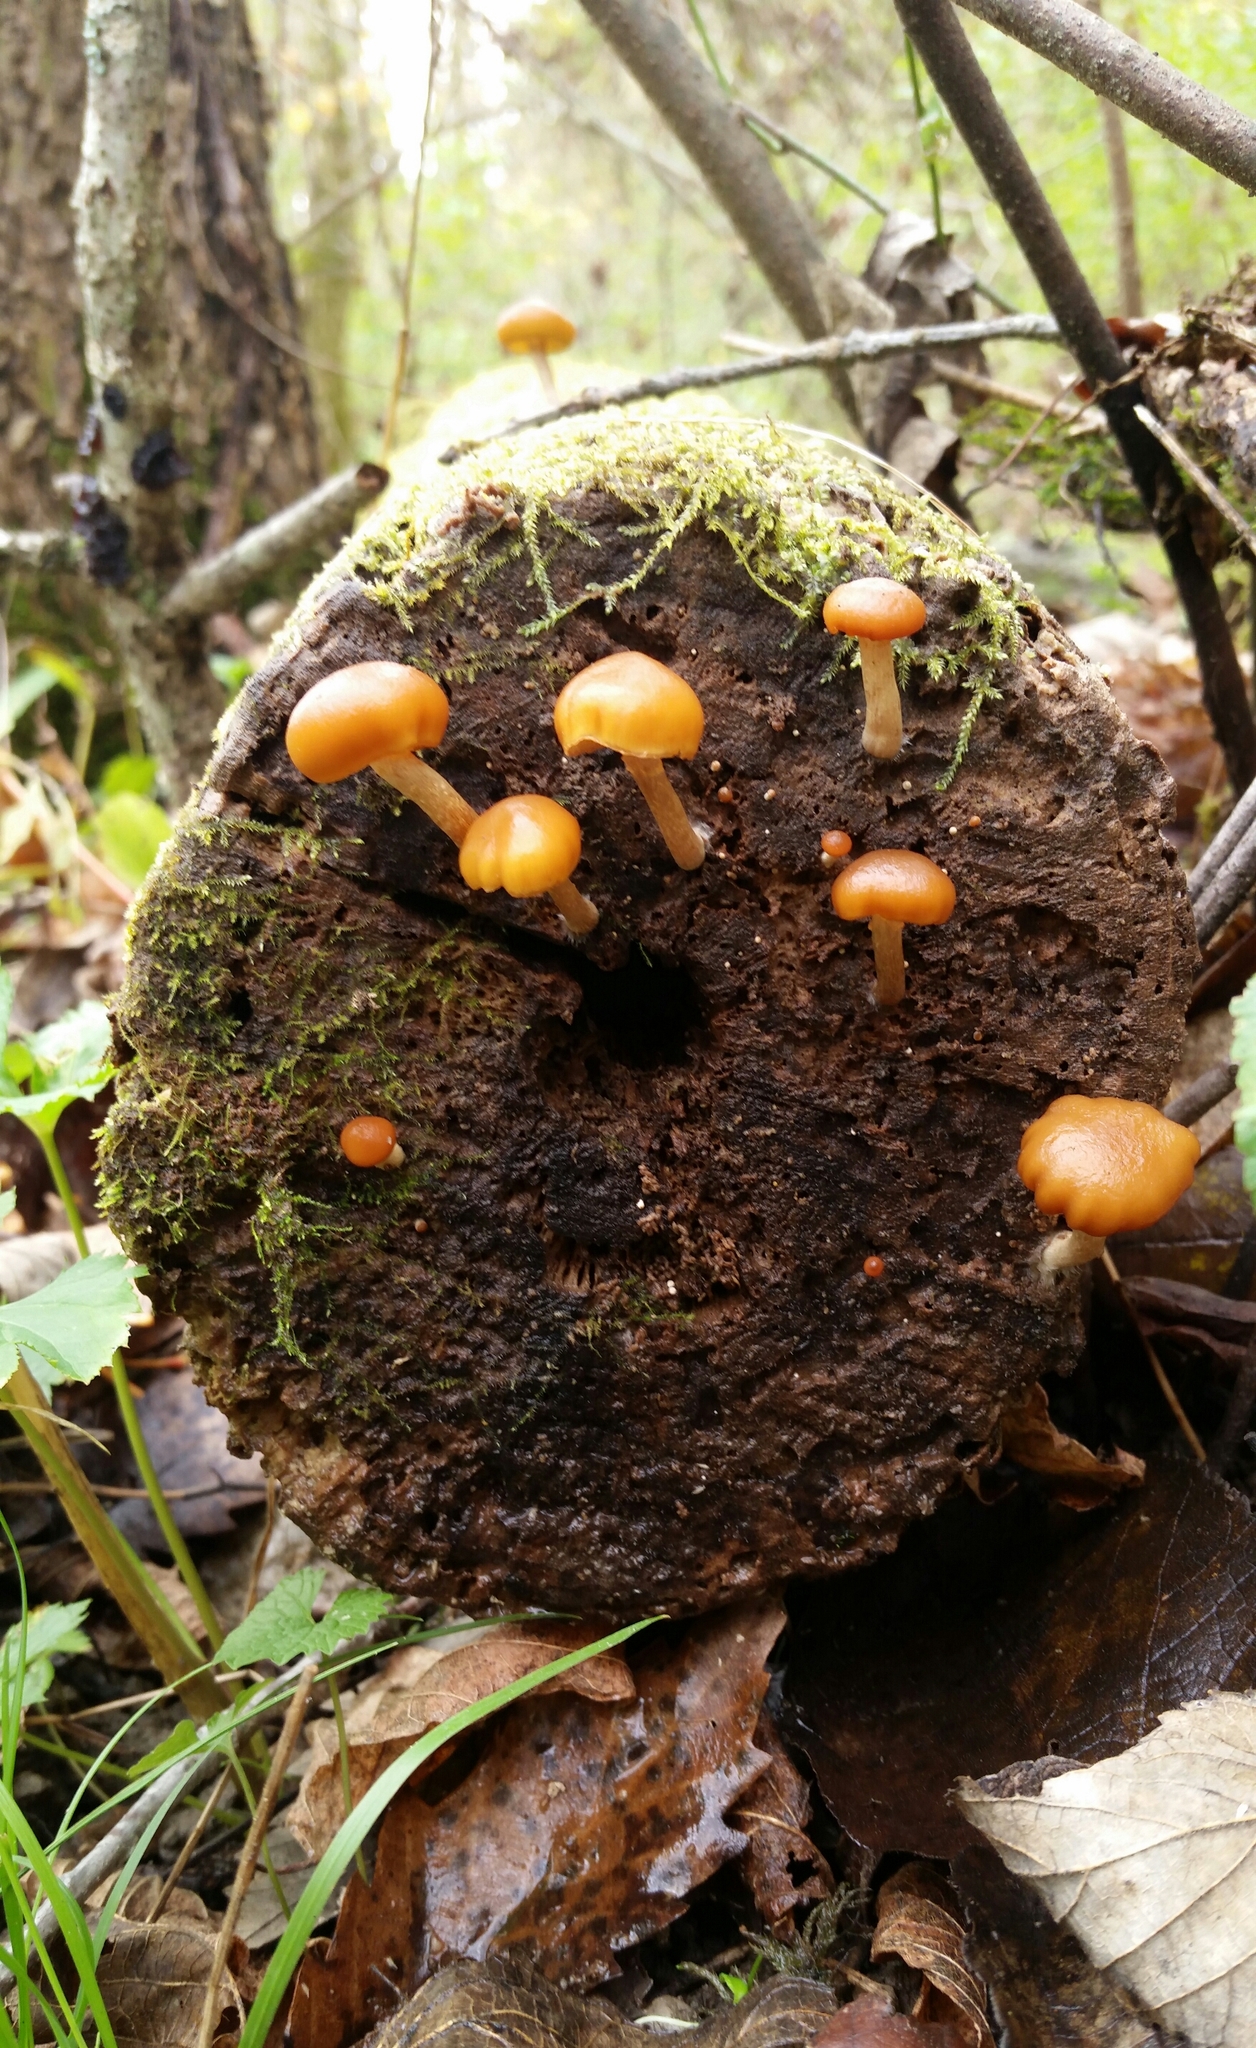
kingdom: Fungi
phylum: Basidiomycota
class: Agaricomycetes
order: Agaricales
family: Hymenogastraceae
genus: Galerina
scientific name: Galerina marginata
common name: Funeral bell
